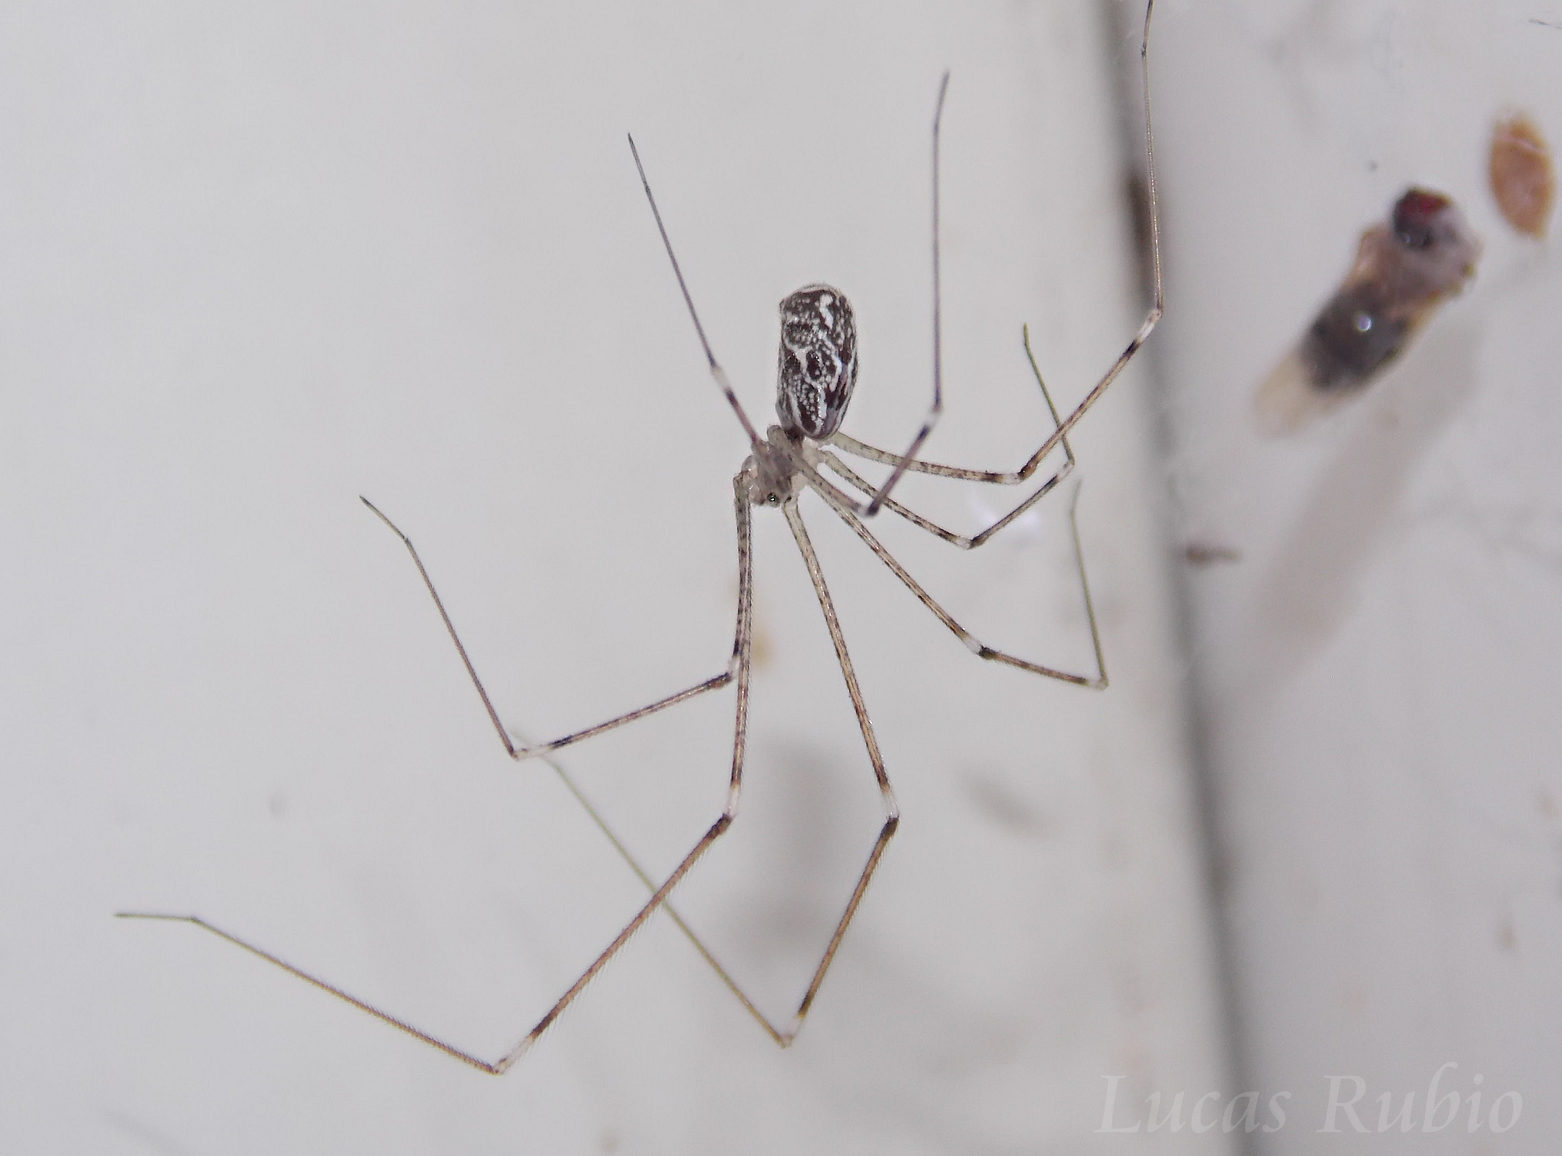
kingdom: Animalia
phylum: Arthropoda
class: Arachnida
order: Araneae
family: Pholcidae
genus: Holocnemus
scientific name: Holocnemus pluchei
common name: Marbled cellar spider
